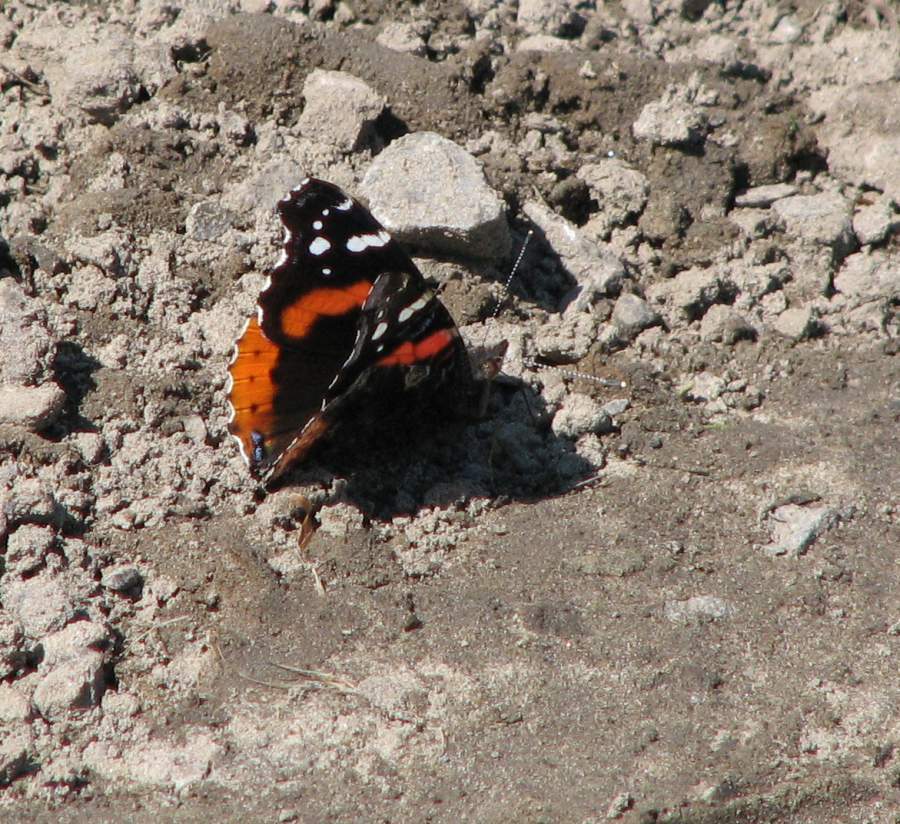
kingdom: Animalia
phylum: Arthropoda
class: Insecta
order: Lepidoptera
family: Nymphalidae
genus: Vanessa
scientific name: Vanessa atalanta
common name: Red admiral
